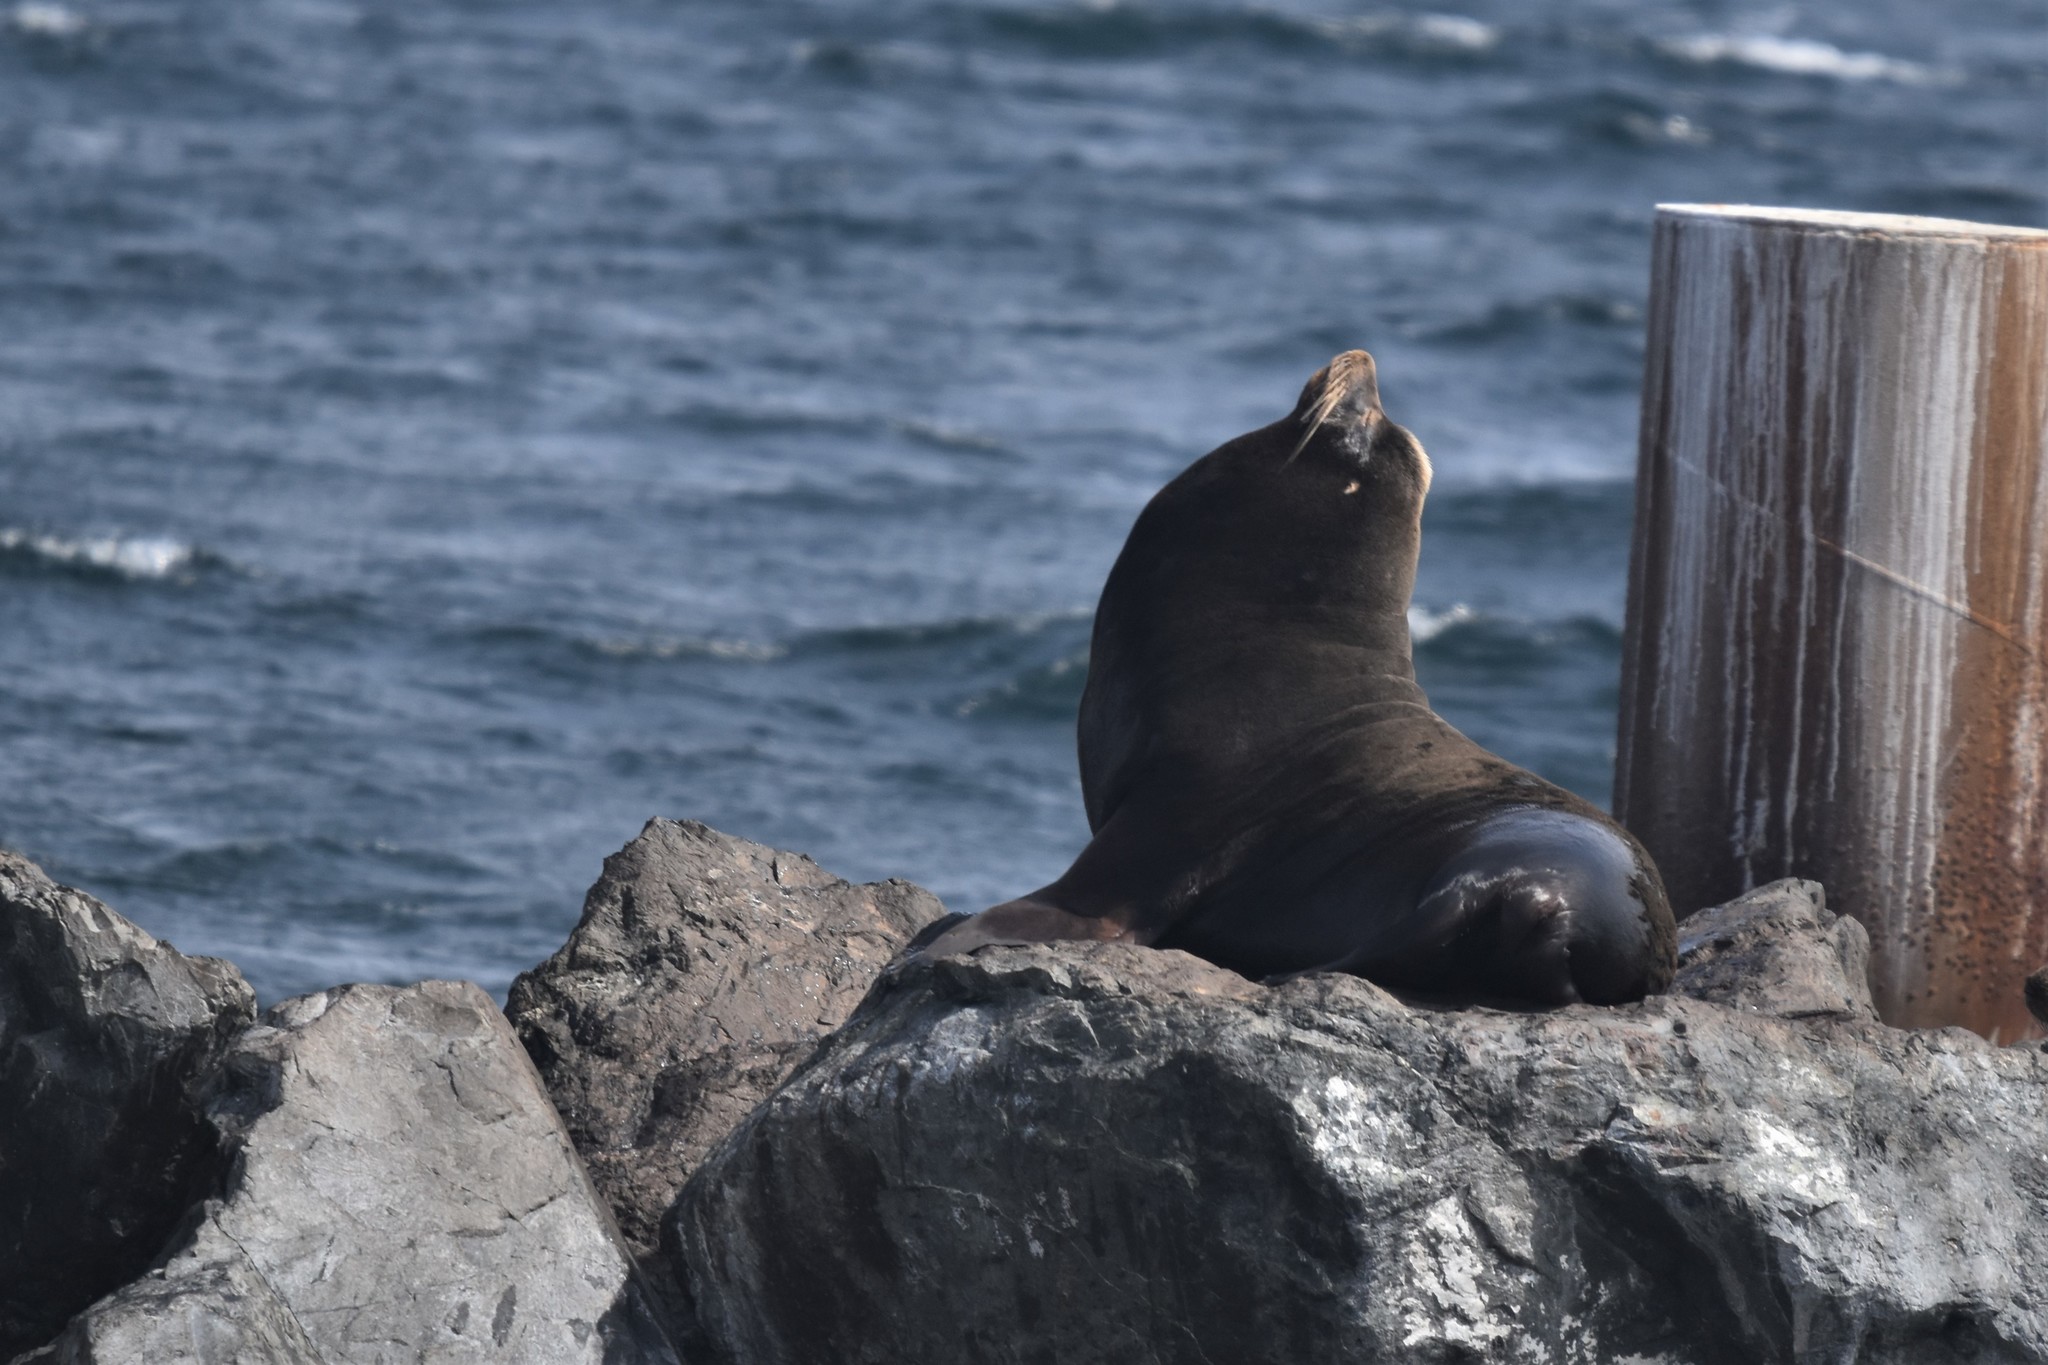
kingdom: Animalia
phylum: Chordata
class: Mammalia
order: Carnivora
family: Otariidae
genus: Zalophus
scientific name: Zalophus californianus
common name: California sea lion
